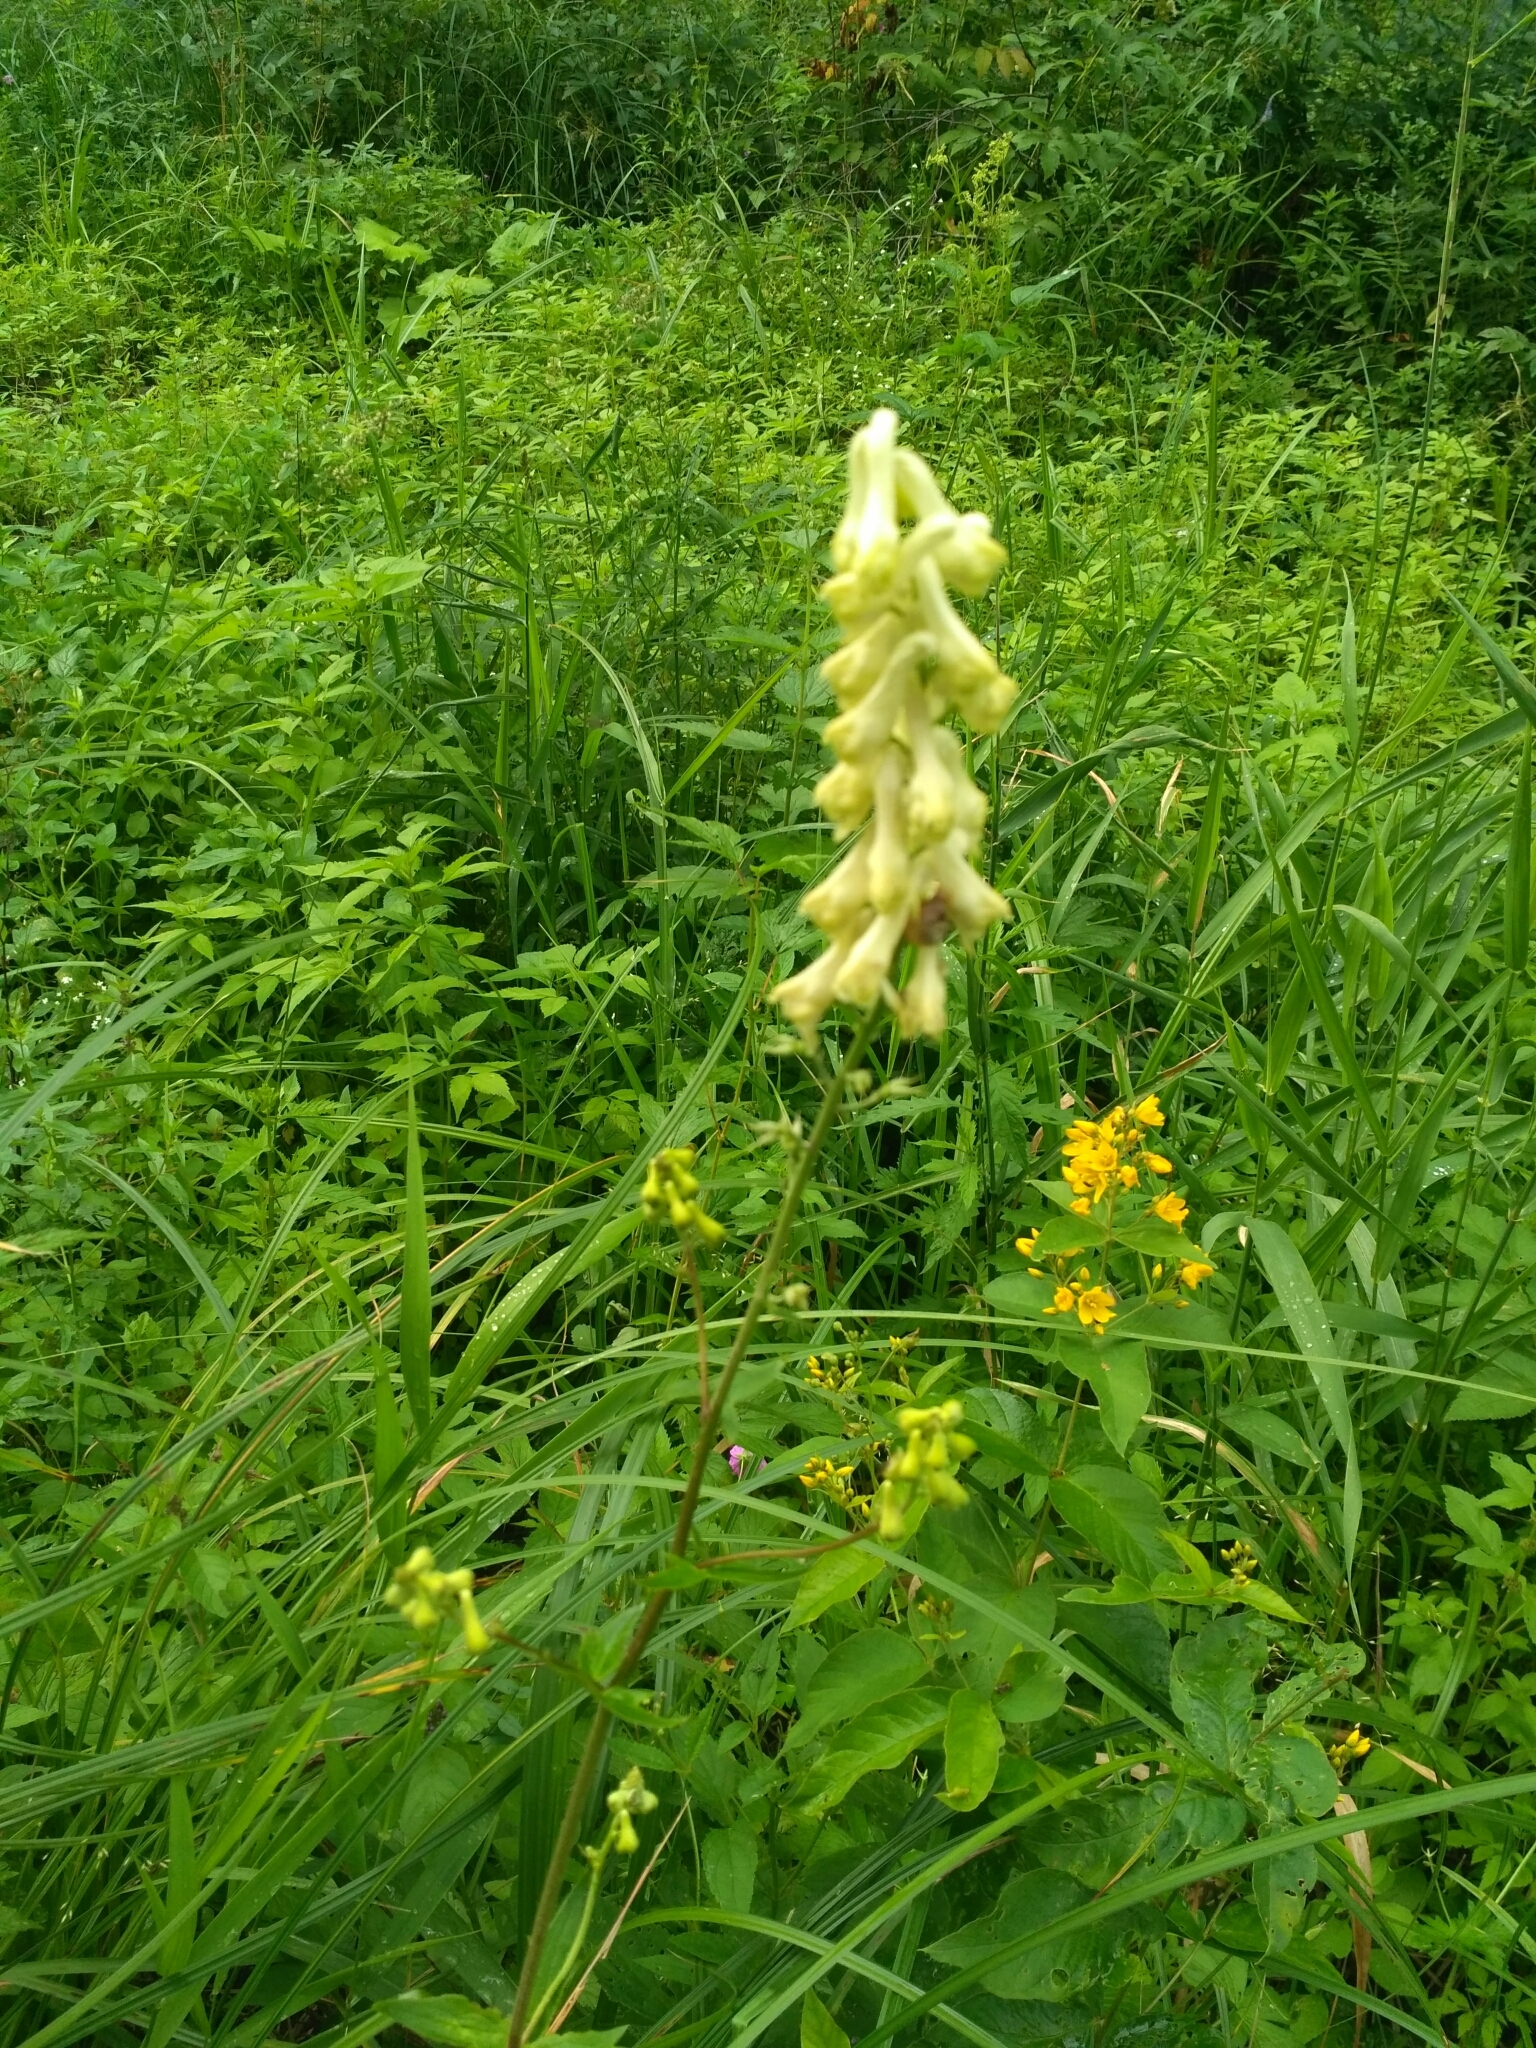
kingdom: Plantae
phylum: Tracheophyta
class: Magnoliopsida
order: Ranunculales
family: Ranunculaceae
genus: Aconitum
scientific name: Aconitum lasiostomum
